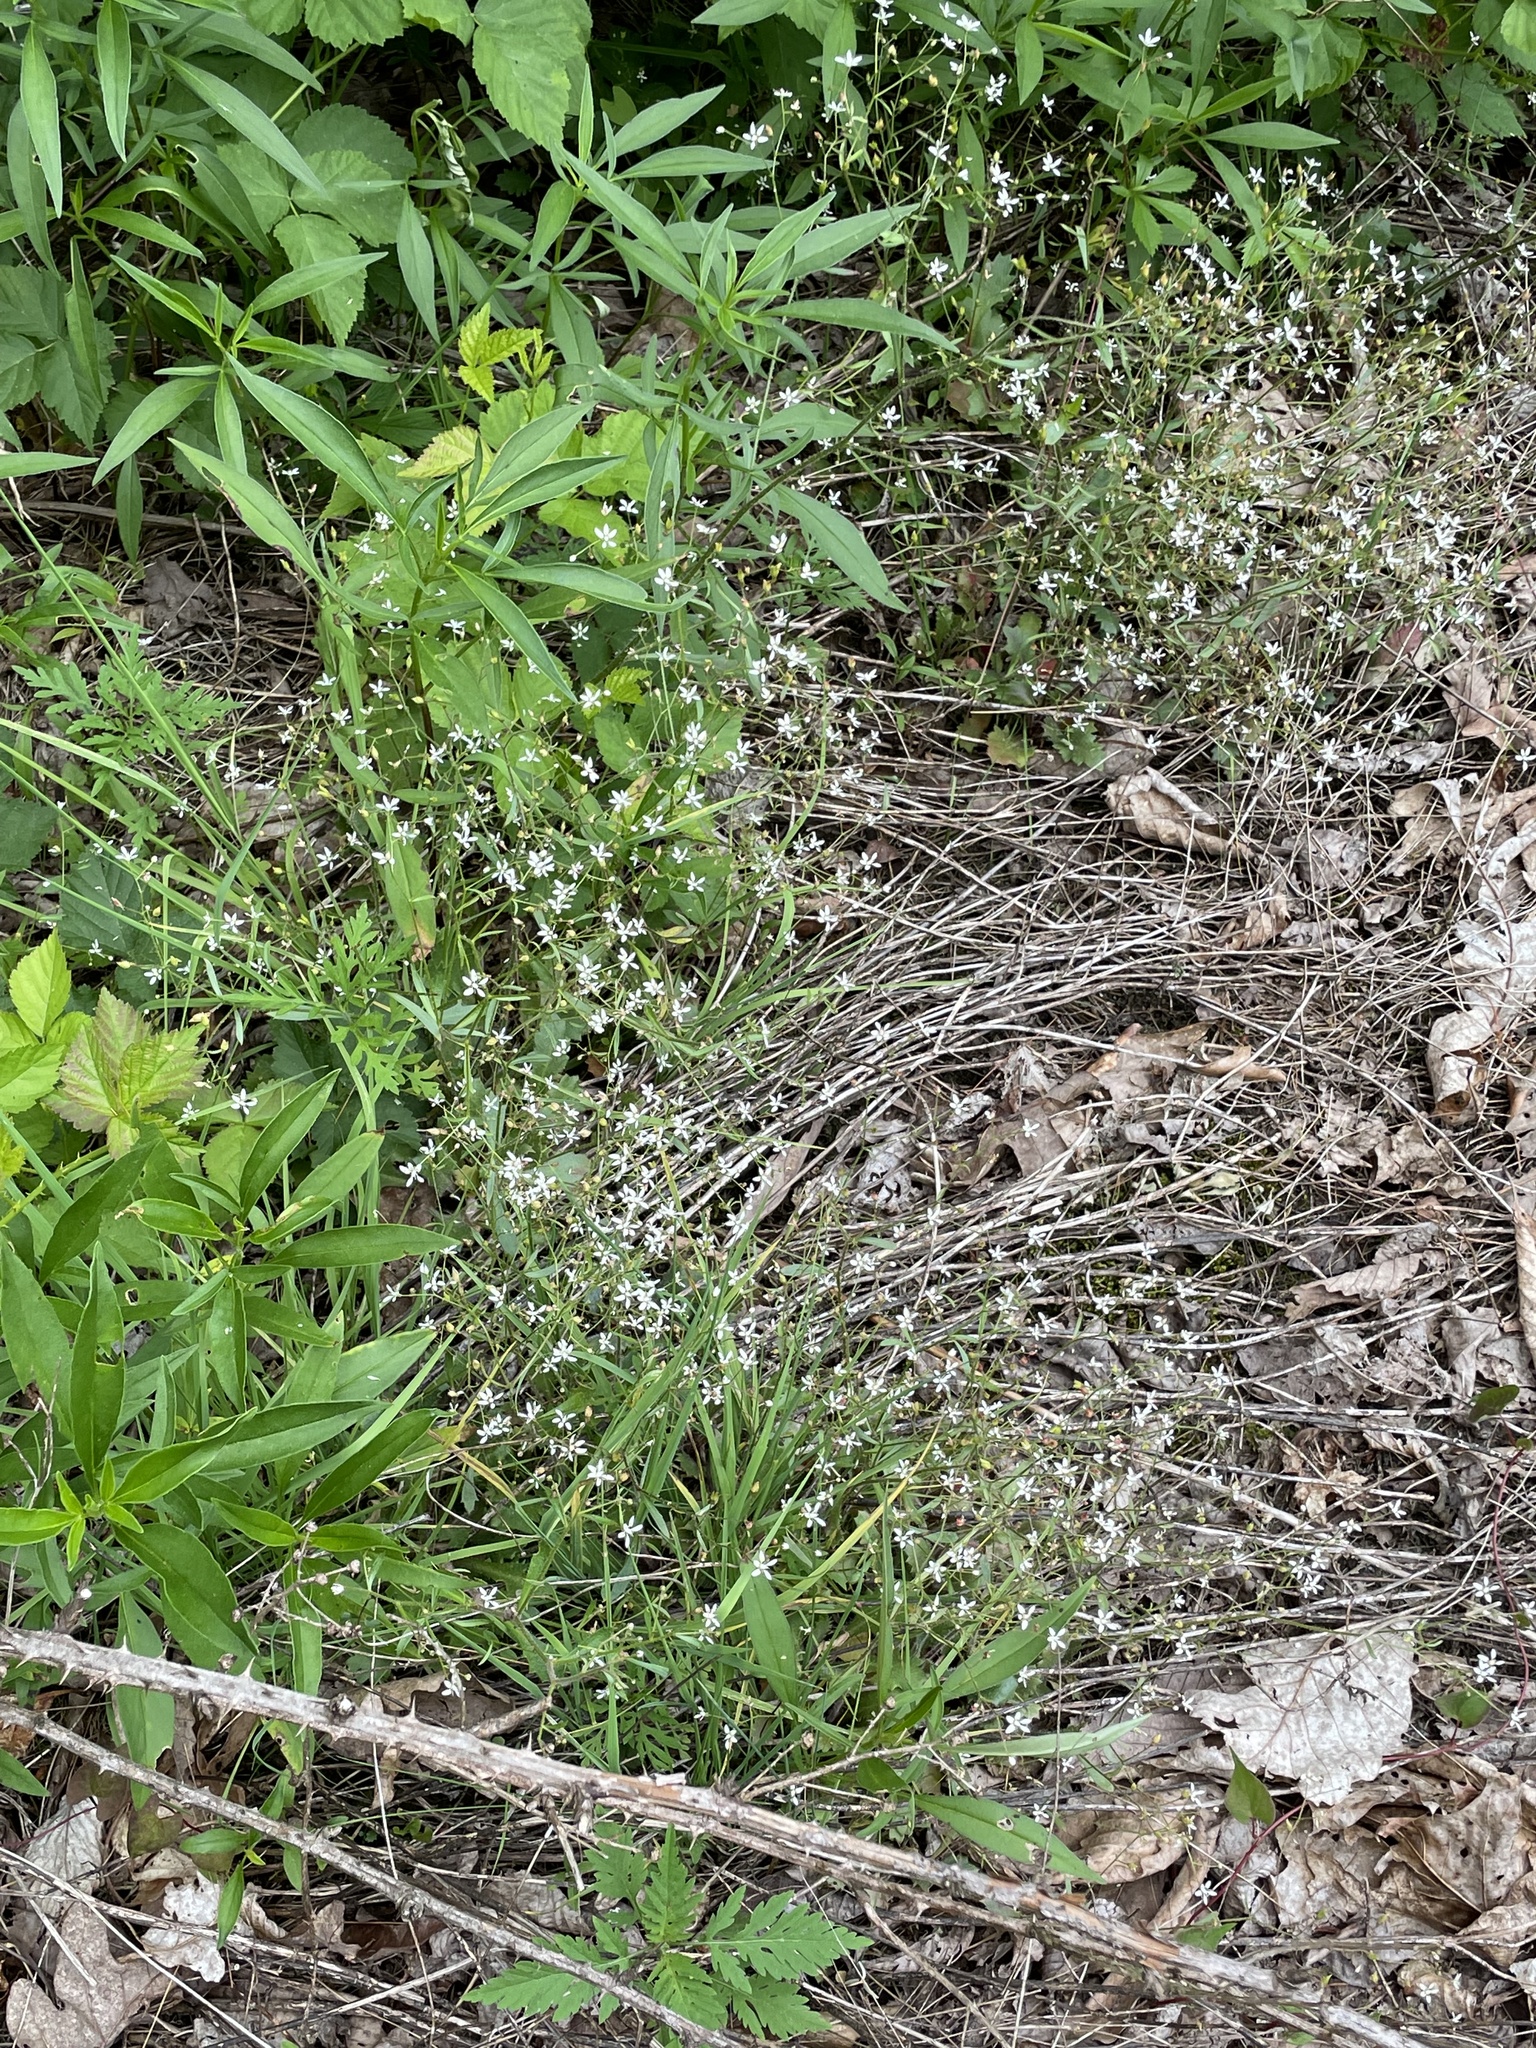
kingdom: Plantae
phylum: Tracheophyta
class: Magnoliopsida
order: Saxifragales
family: Saxifragaceae
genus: Micranthes
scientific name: Micranthes petiolaris
